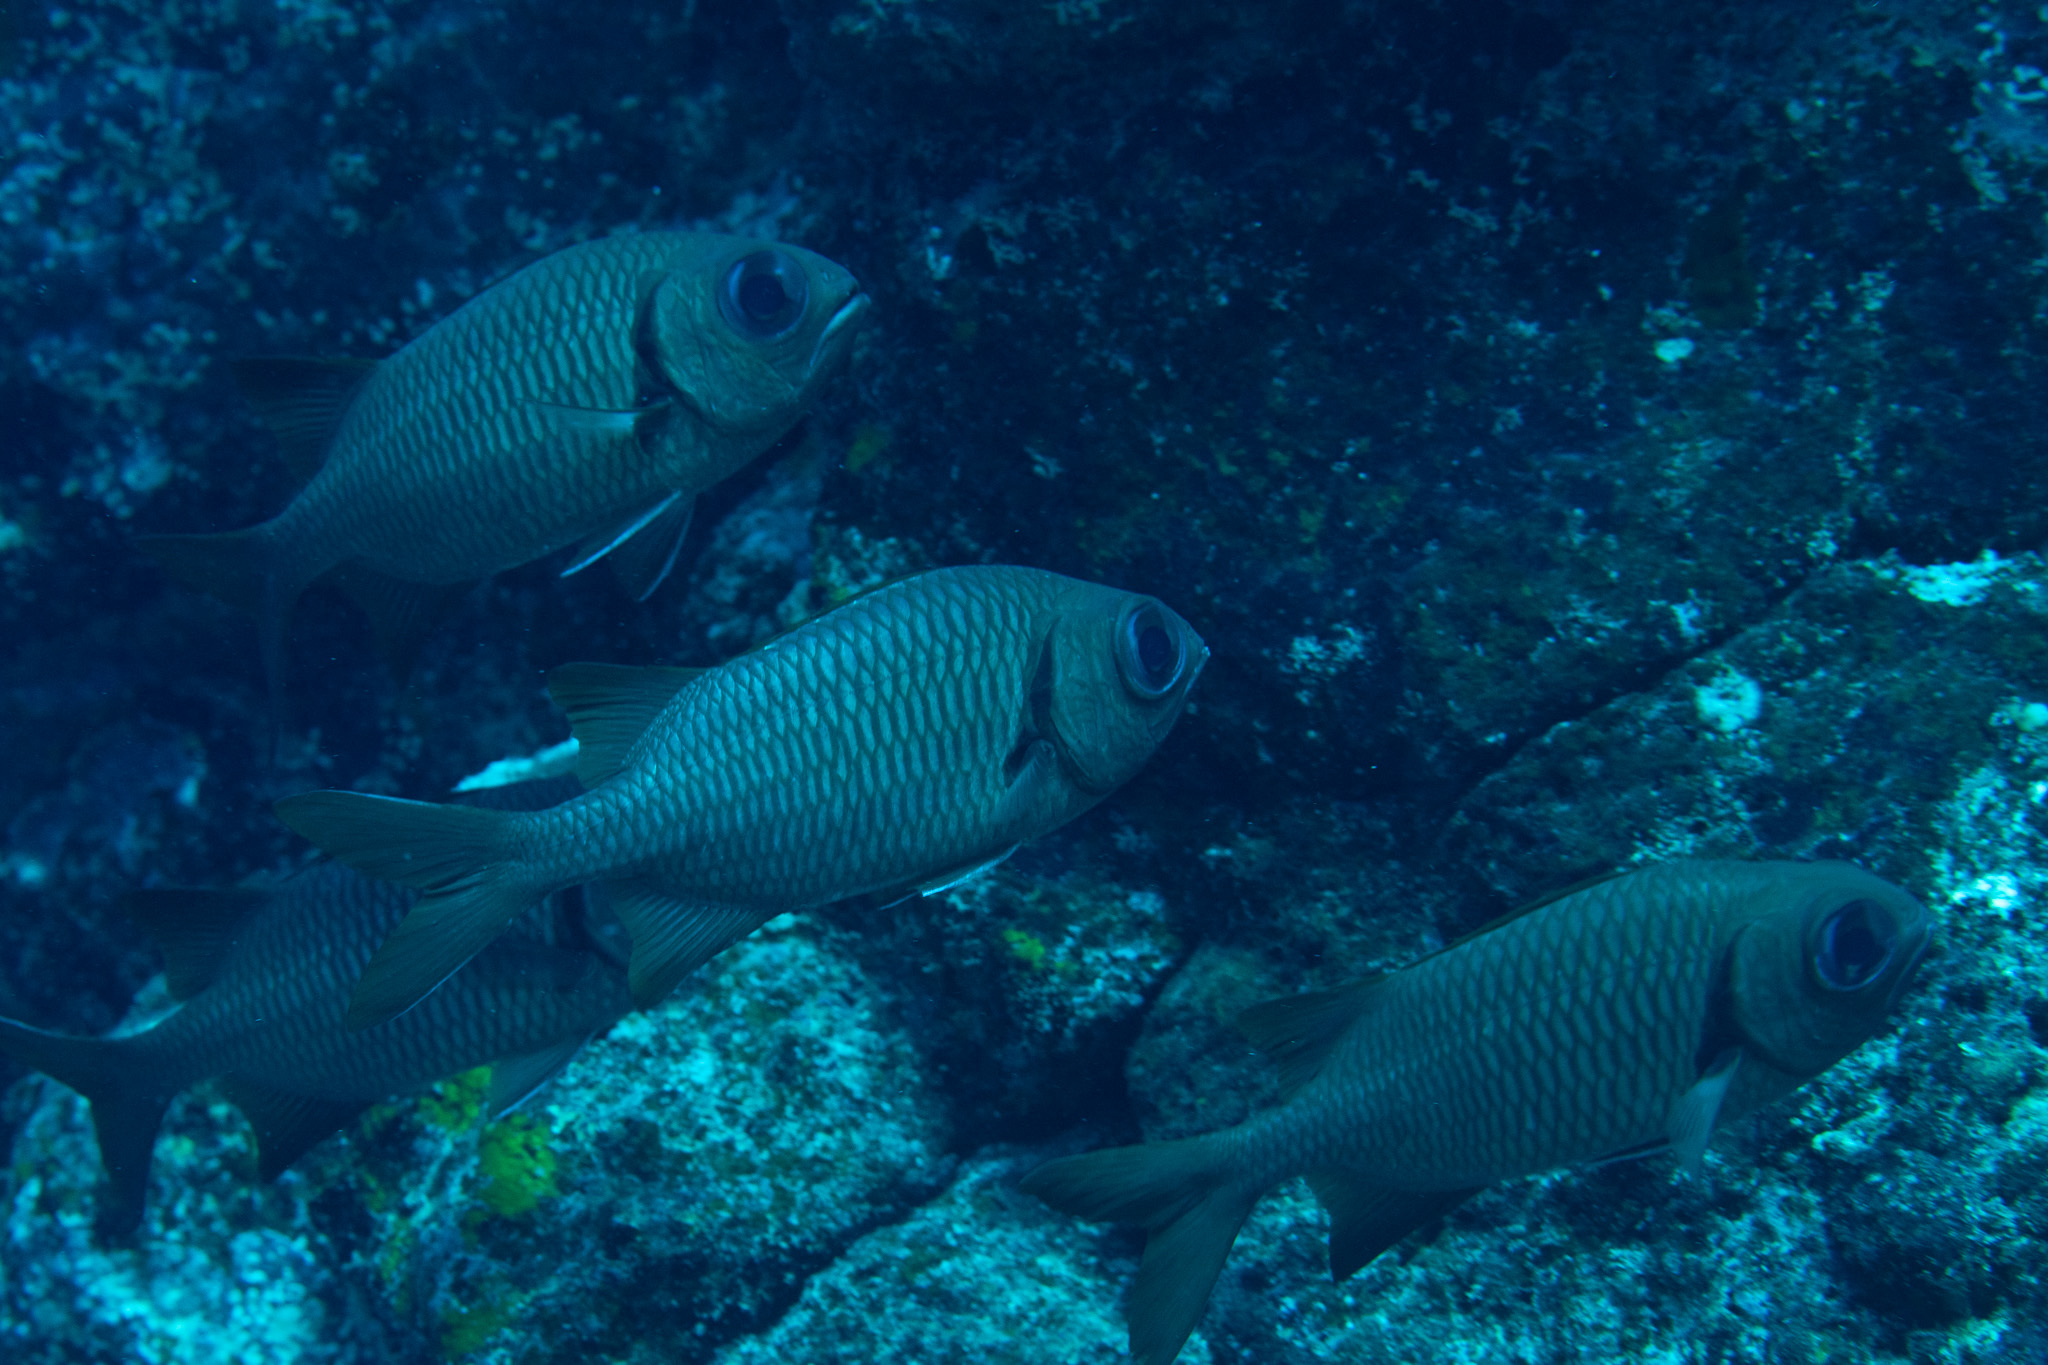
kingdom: Animalia
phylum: Chordata
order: Beryciformes
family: Holocentridae
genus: Myripristis
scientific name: Myripristis amaena
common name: Brick soldierfish
